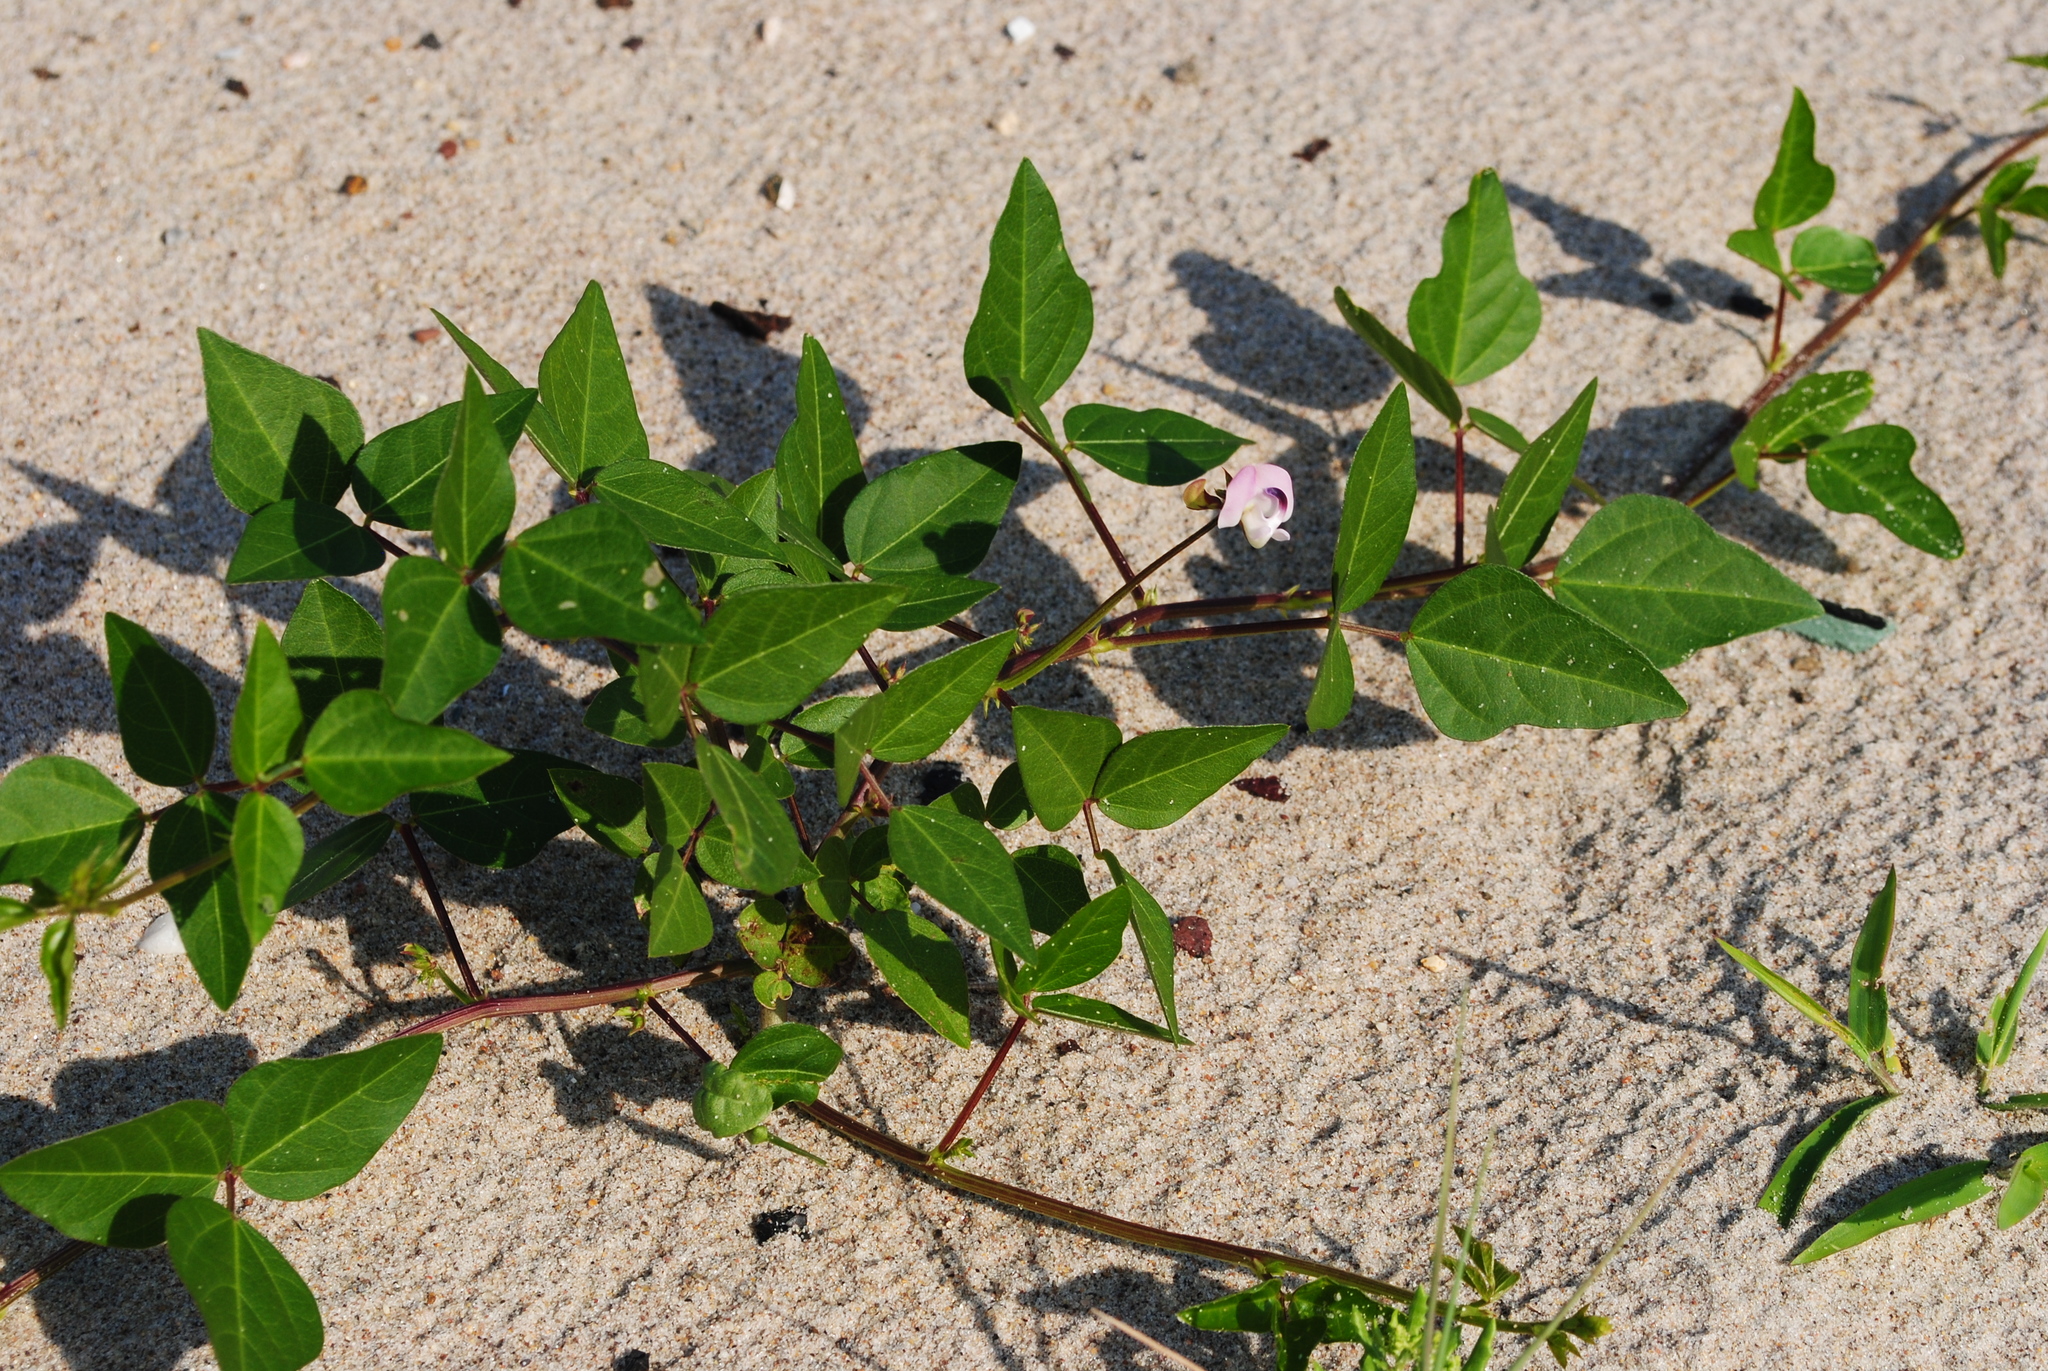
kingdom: Plantae
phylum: Tracheophyta
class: Magnoliopsida
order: Fabales
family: Fabaceae
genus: Strophostyles
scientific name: Strophostyles helvola
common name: Trailing wild bean
